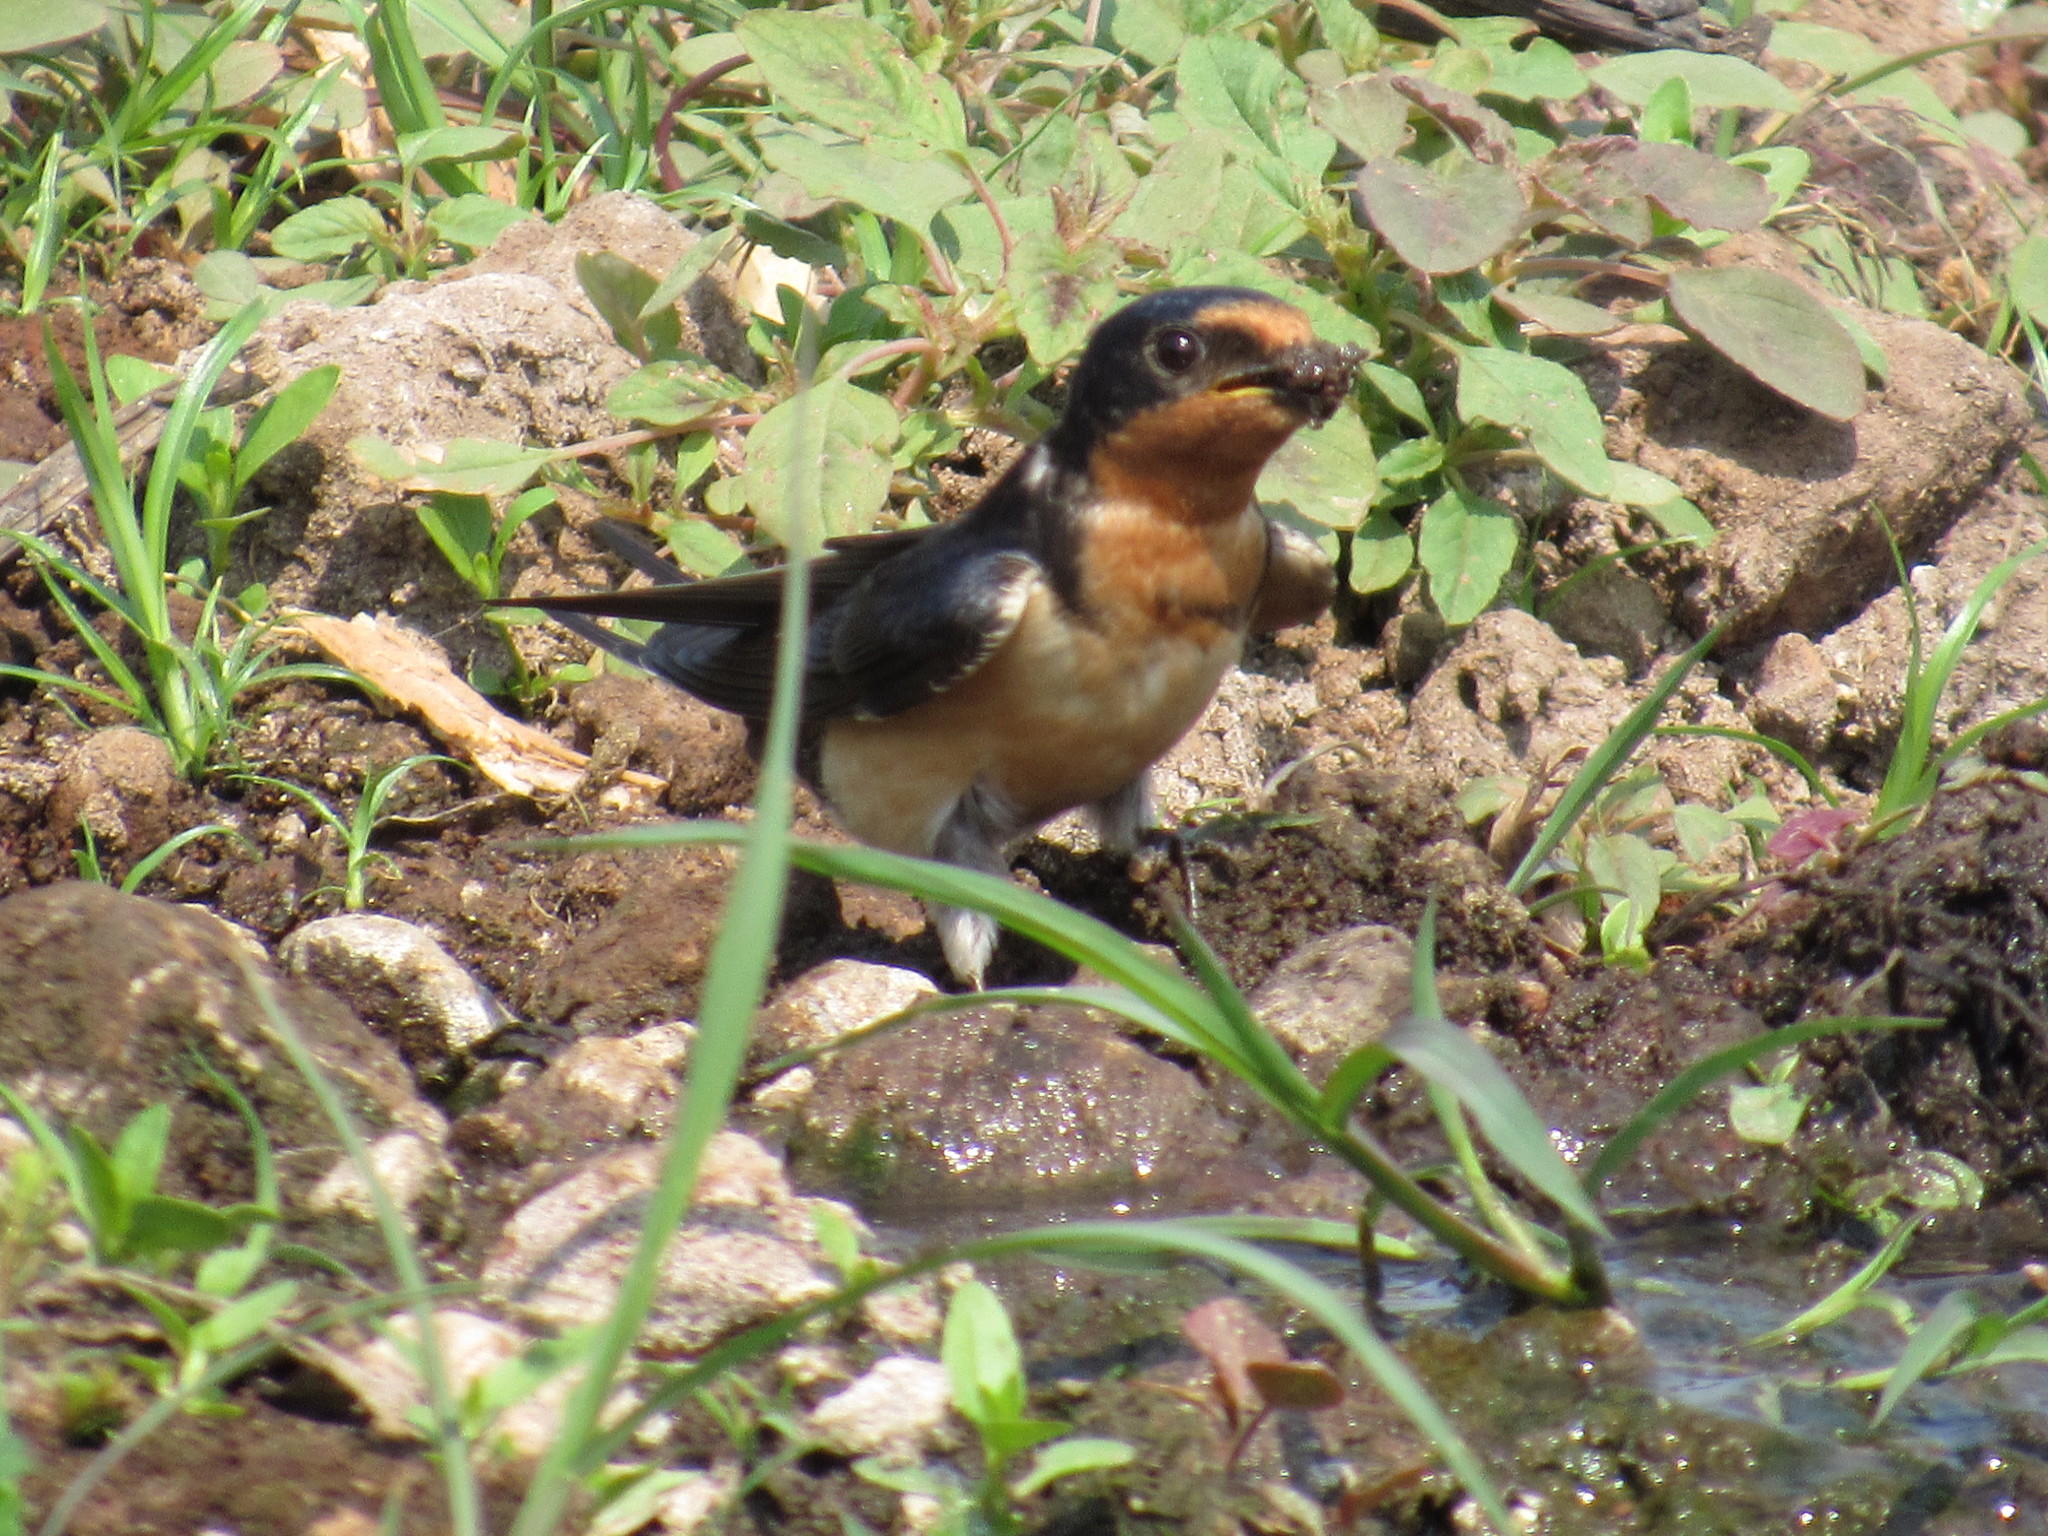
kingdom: Animalia
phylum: Chordata
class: Aves
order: Passeriformes
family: Hirundinidae
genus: Hirundo
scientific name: Hirundo rustica
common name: Barn swallow
